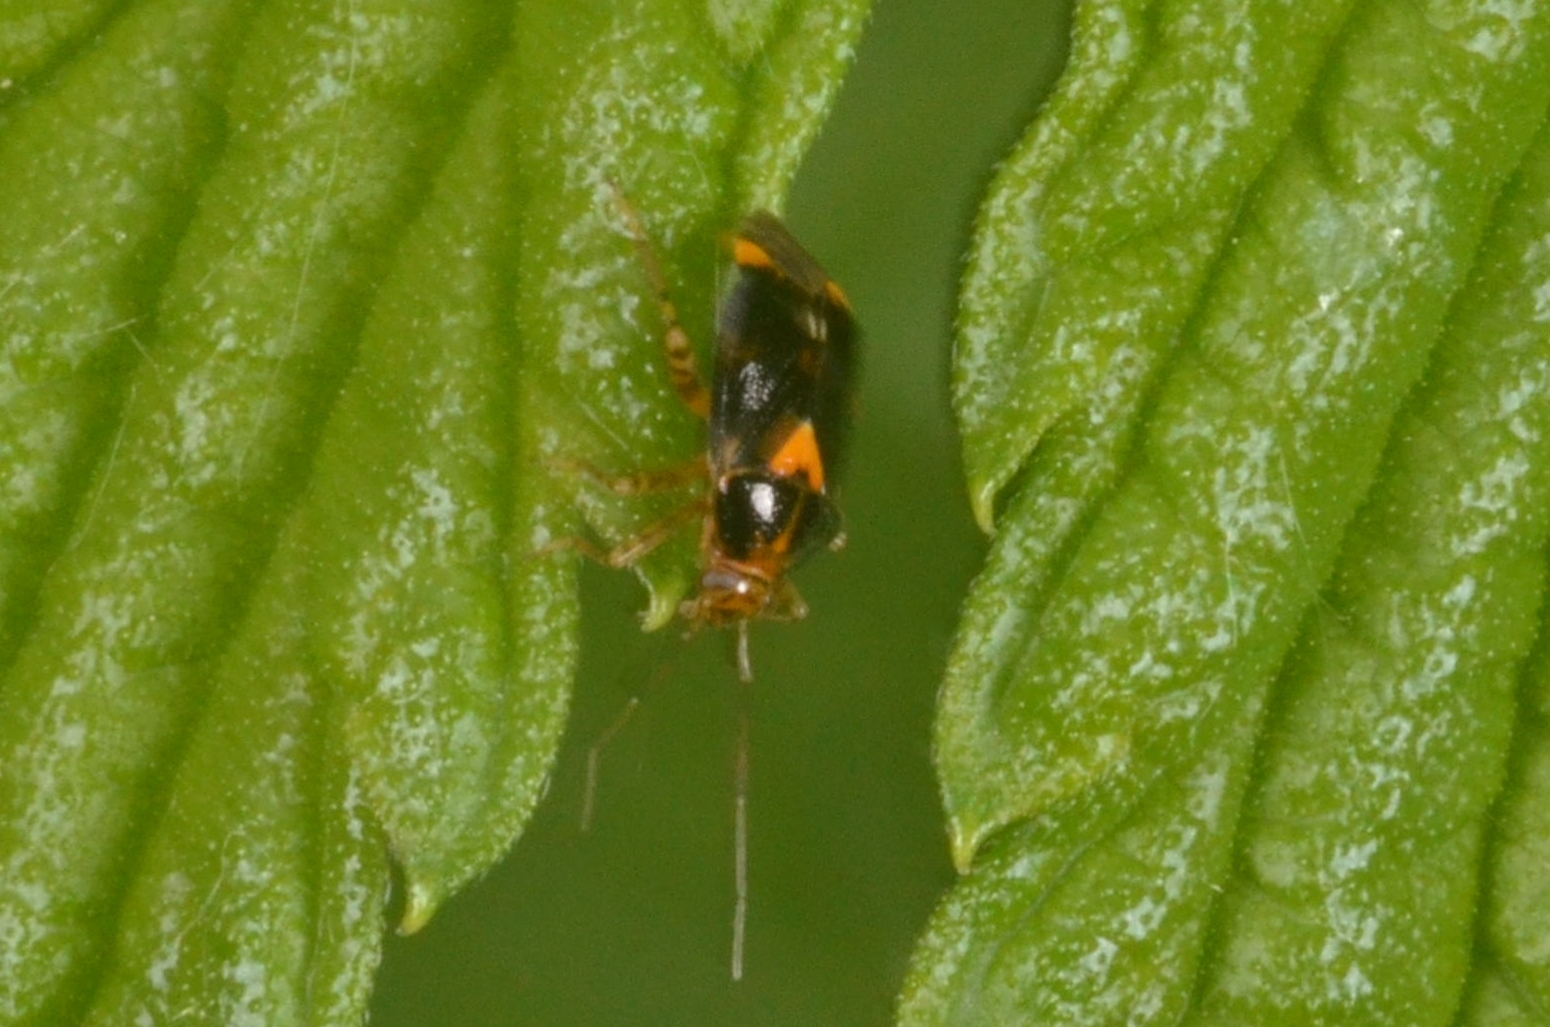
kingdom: Animalia
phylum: Arthropoda
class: Insecta
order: Hemiptera
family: Miridae
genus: Liocoris
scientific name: Liocoris tripustulatus
